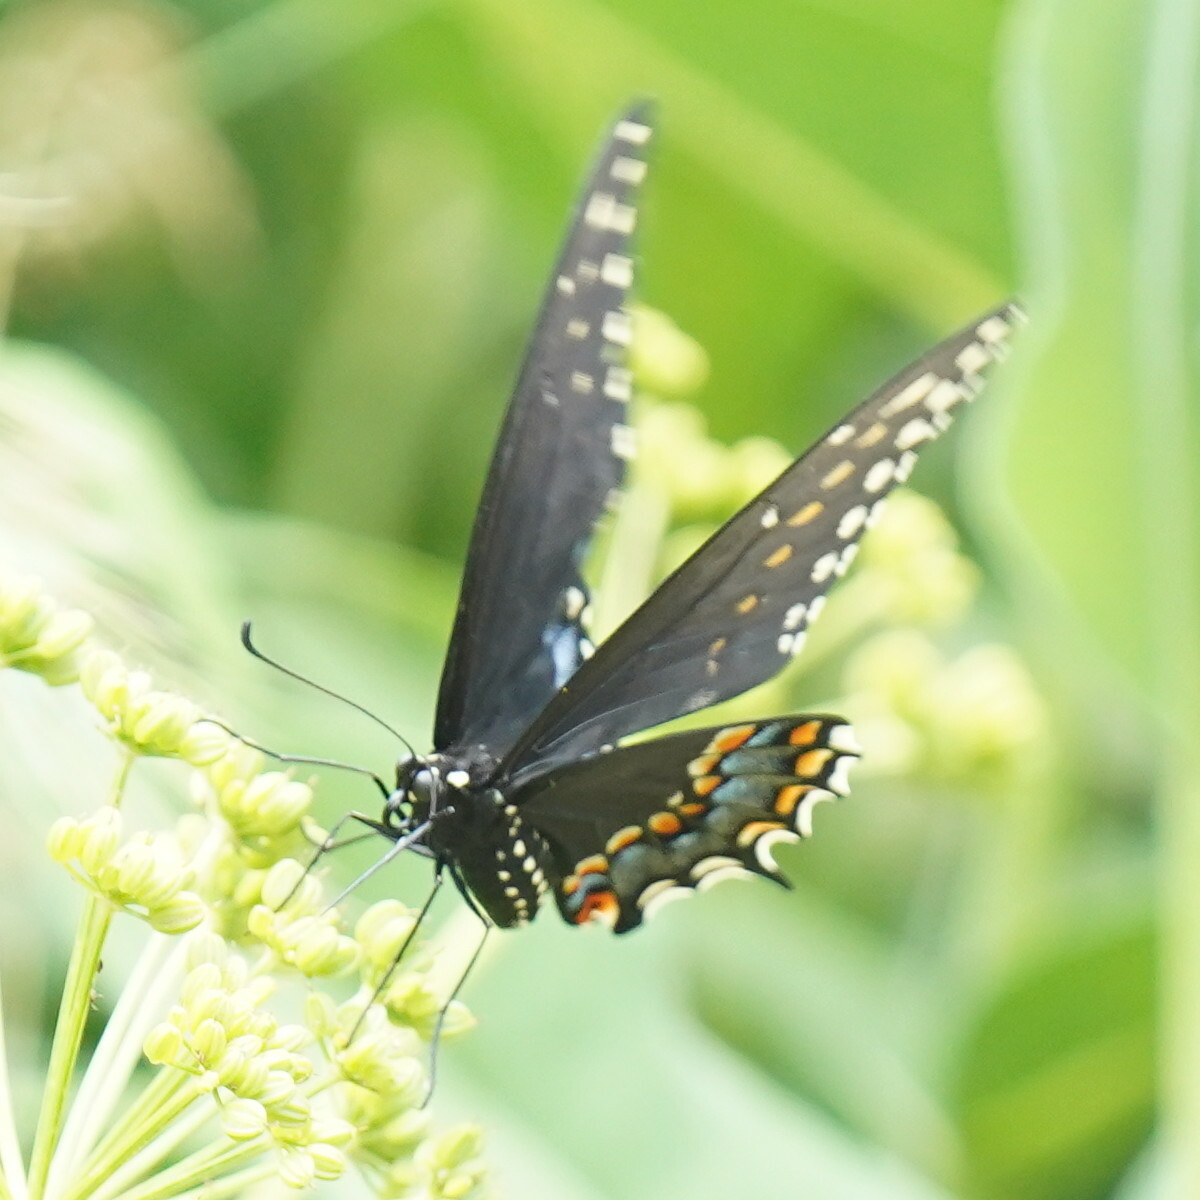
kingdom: Animalia
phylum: Arthropoda
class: Insecta
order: Lepidoptera
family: Papilionidae
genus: Papilio
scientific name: Papilio polyxenes
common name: Black swallowtail
